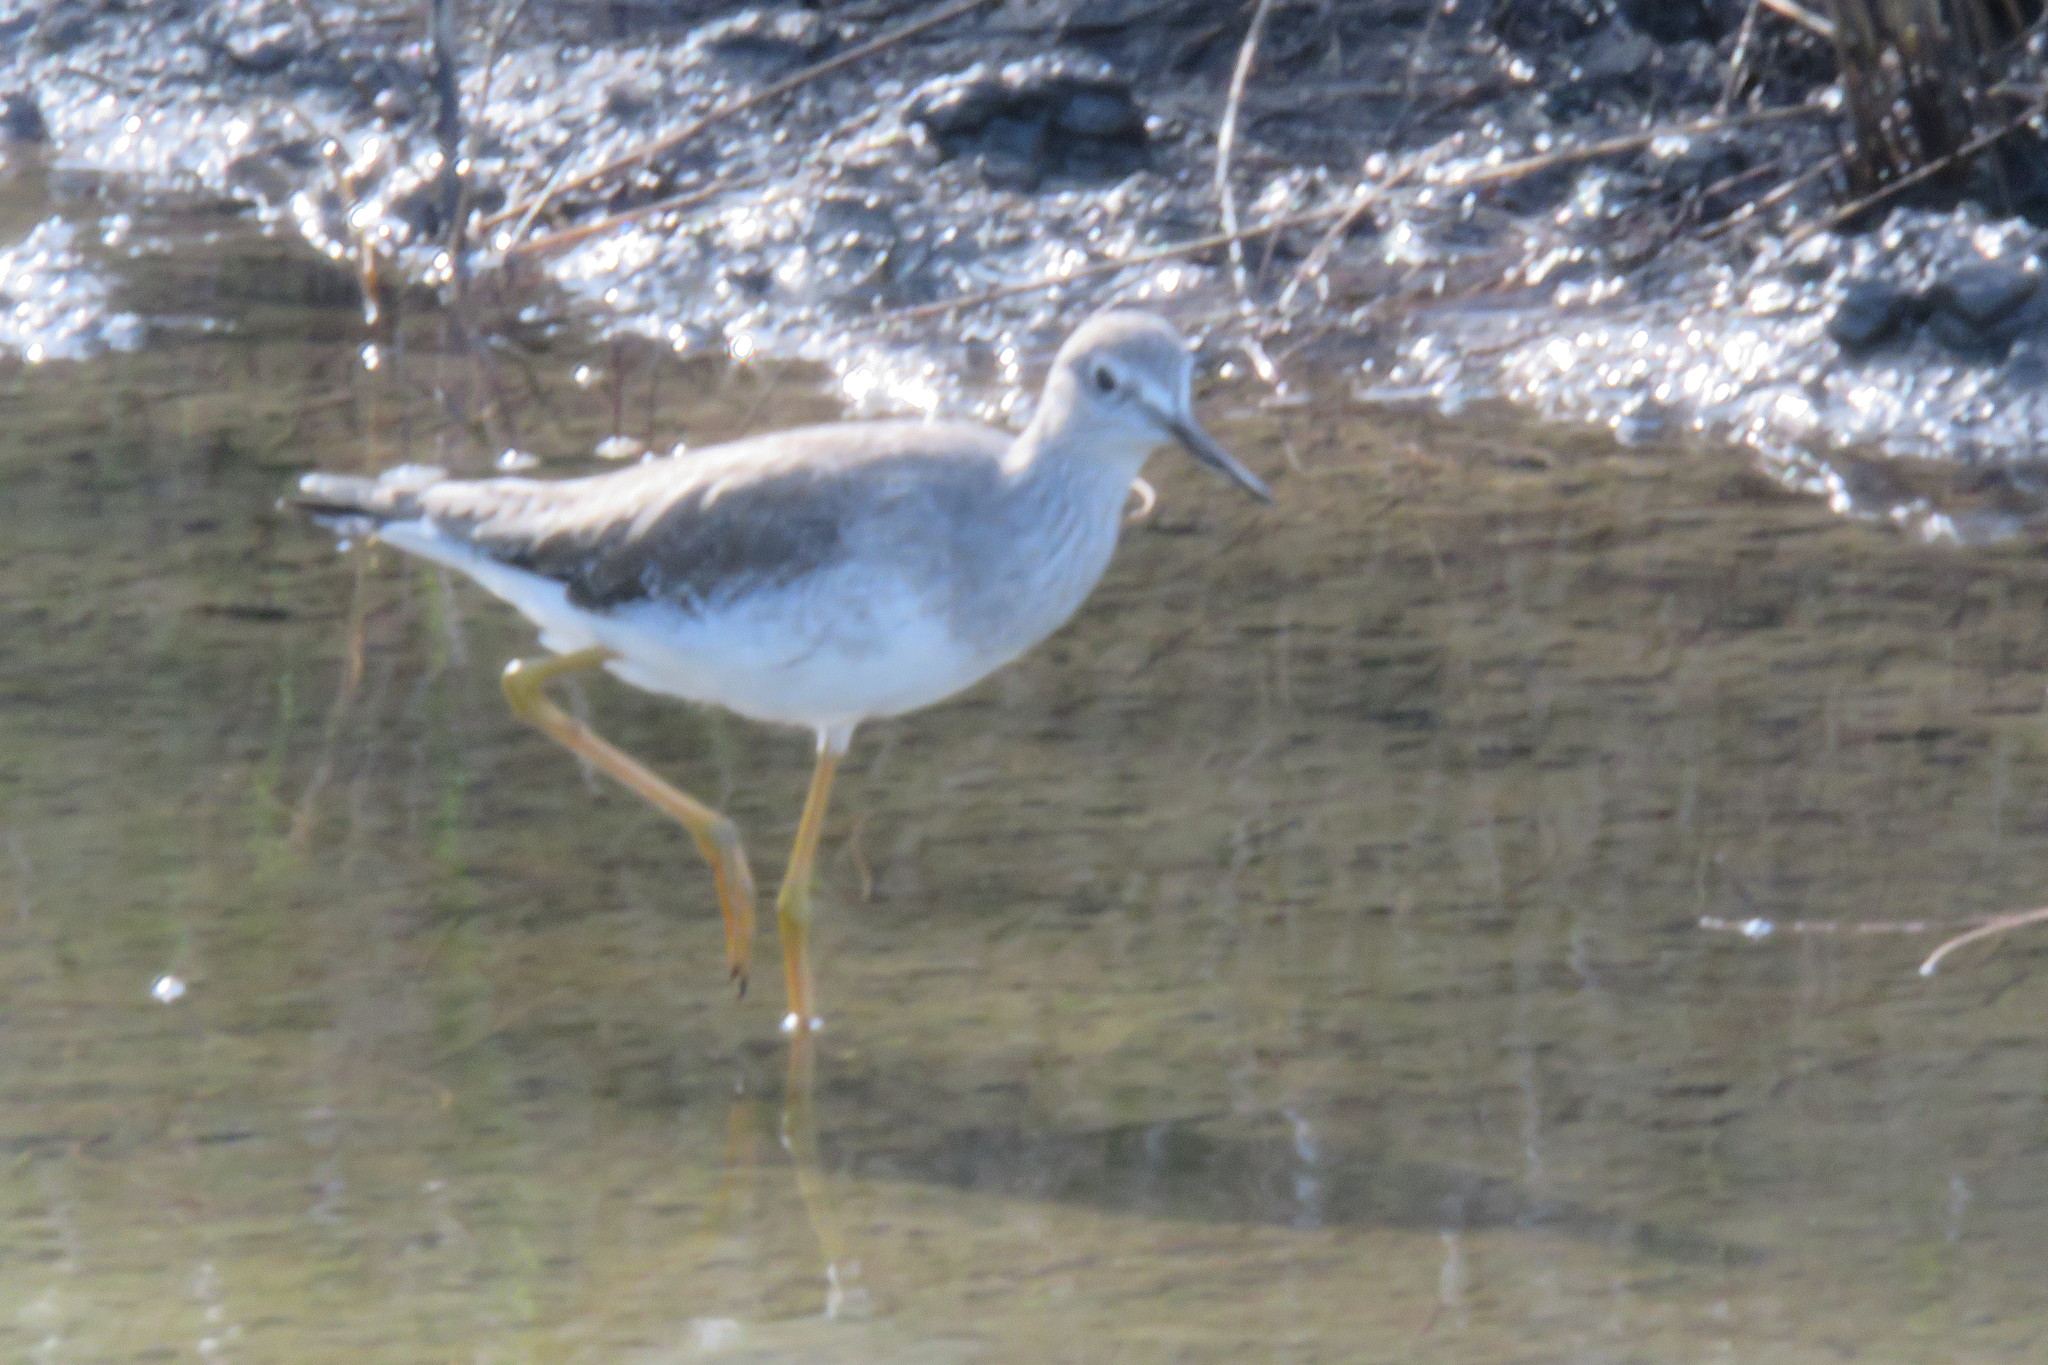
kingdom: Animalia
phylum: Chordata
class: Aves
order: Charadriiformes
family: Scolopacidae
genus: Tringa
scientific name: Tringa flavipes
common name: Lesser yellowlegs
